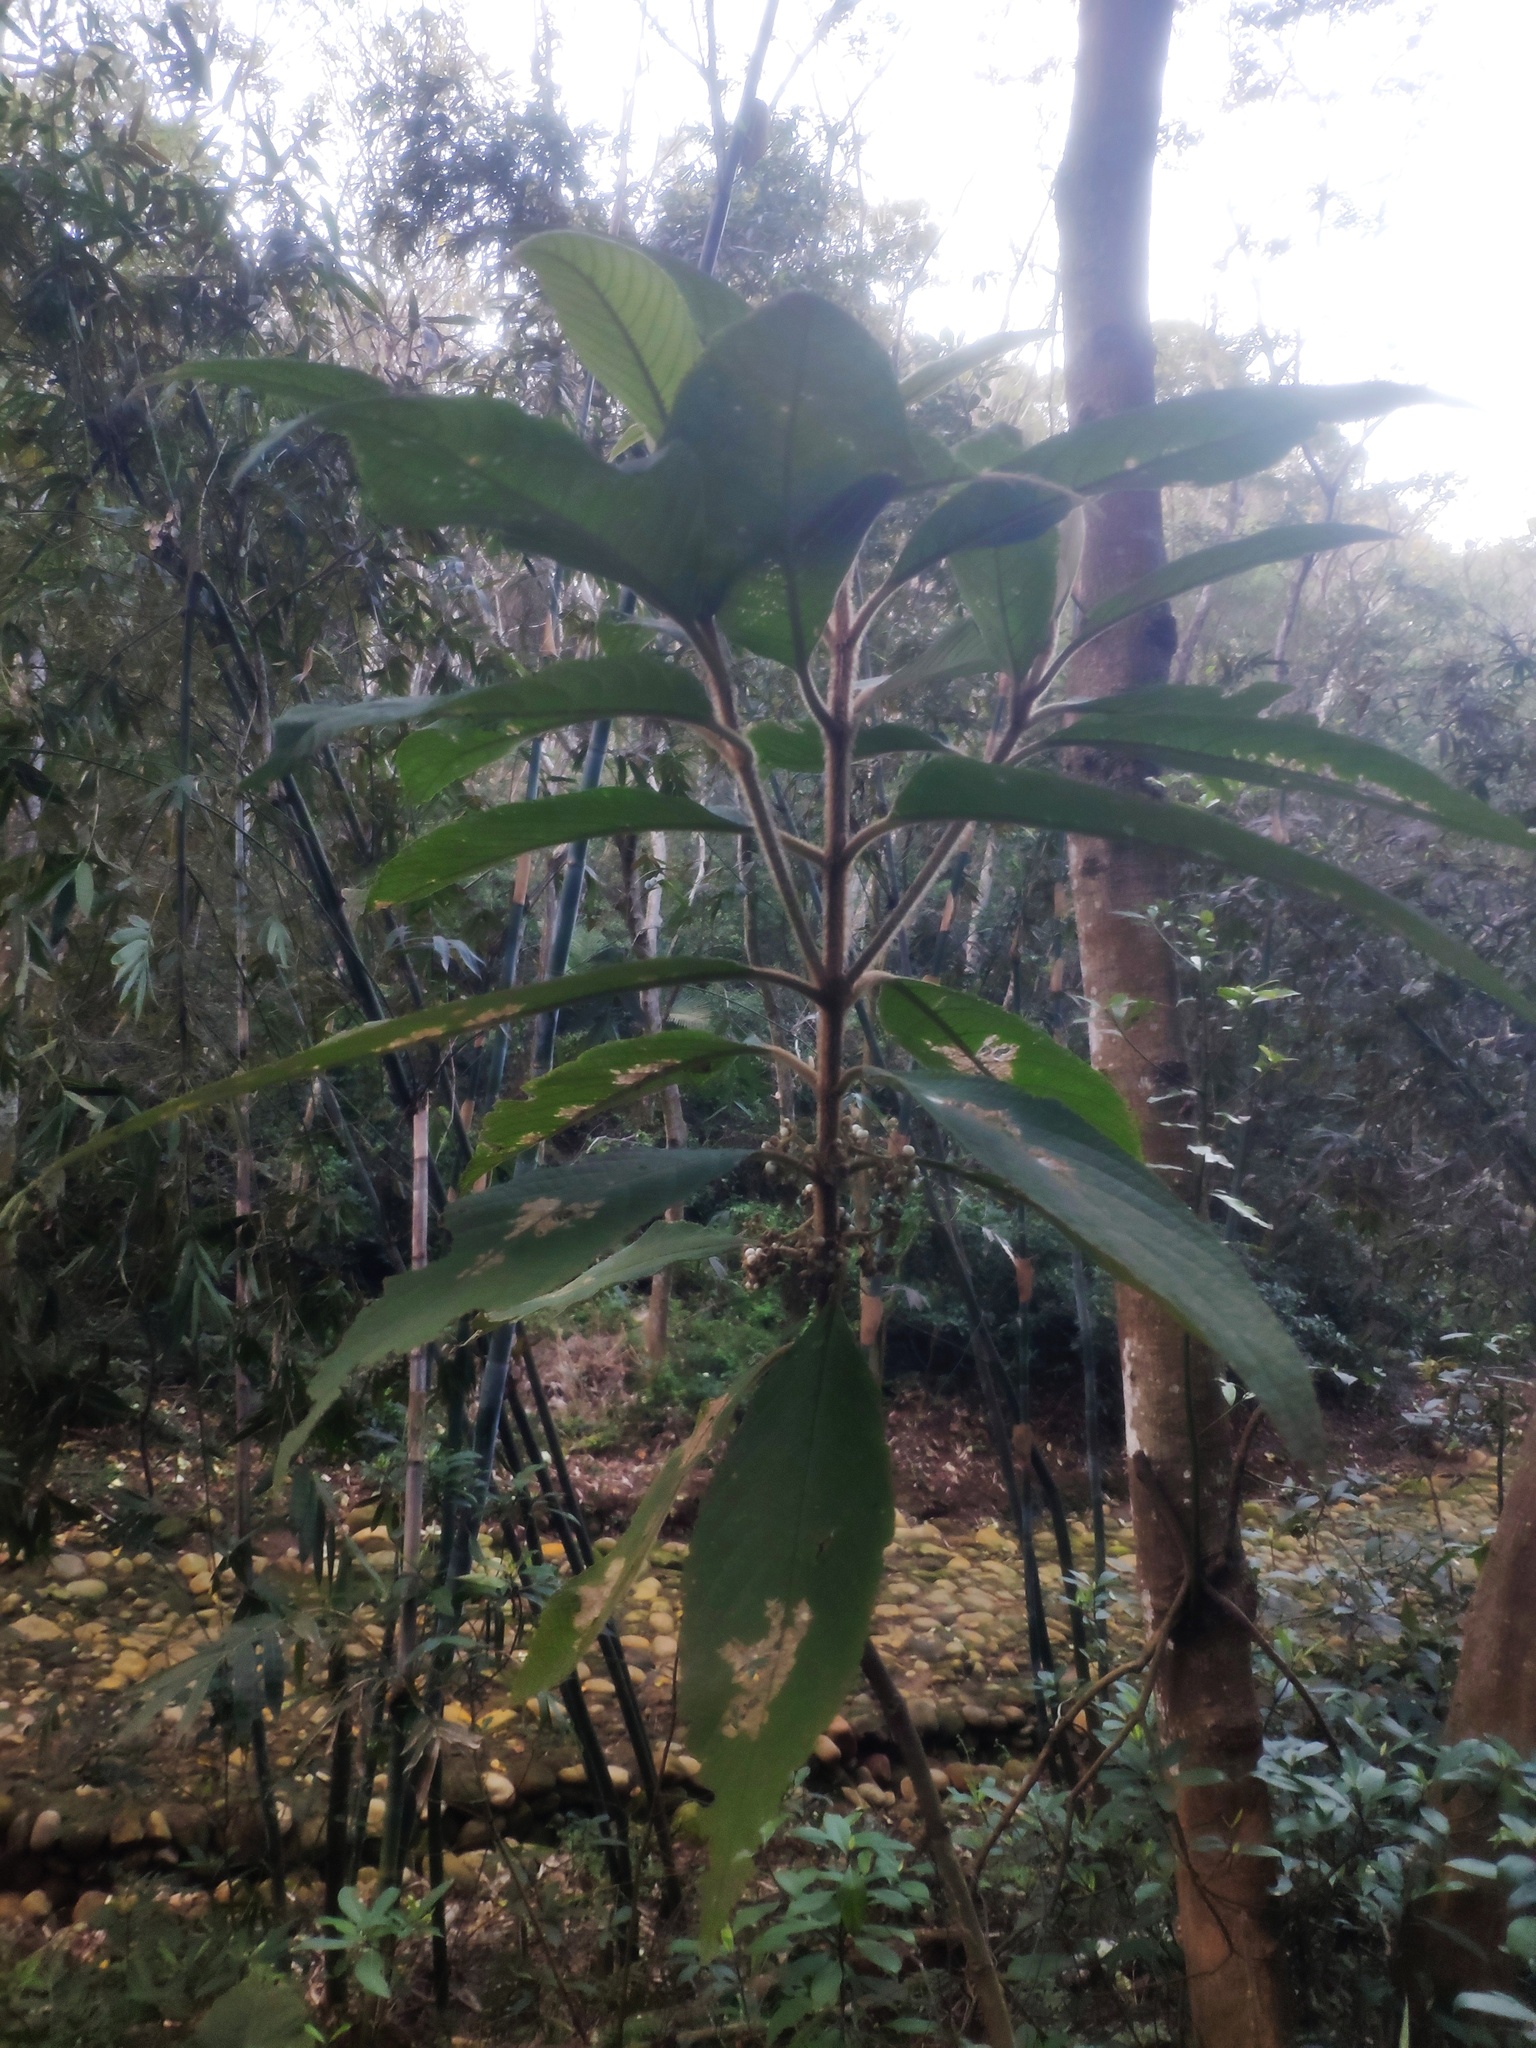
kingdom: Plantae
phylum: Tracheophyta
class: Magnoliopsida
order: Lamiales
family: Lamiaceae
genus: Callicarpa
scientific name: Callicarpa kochiana
